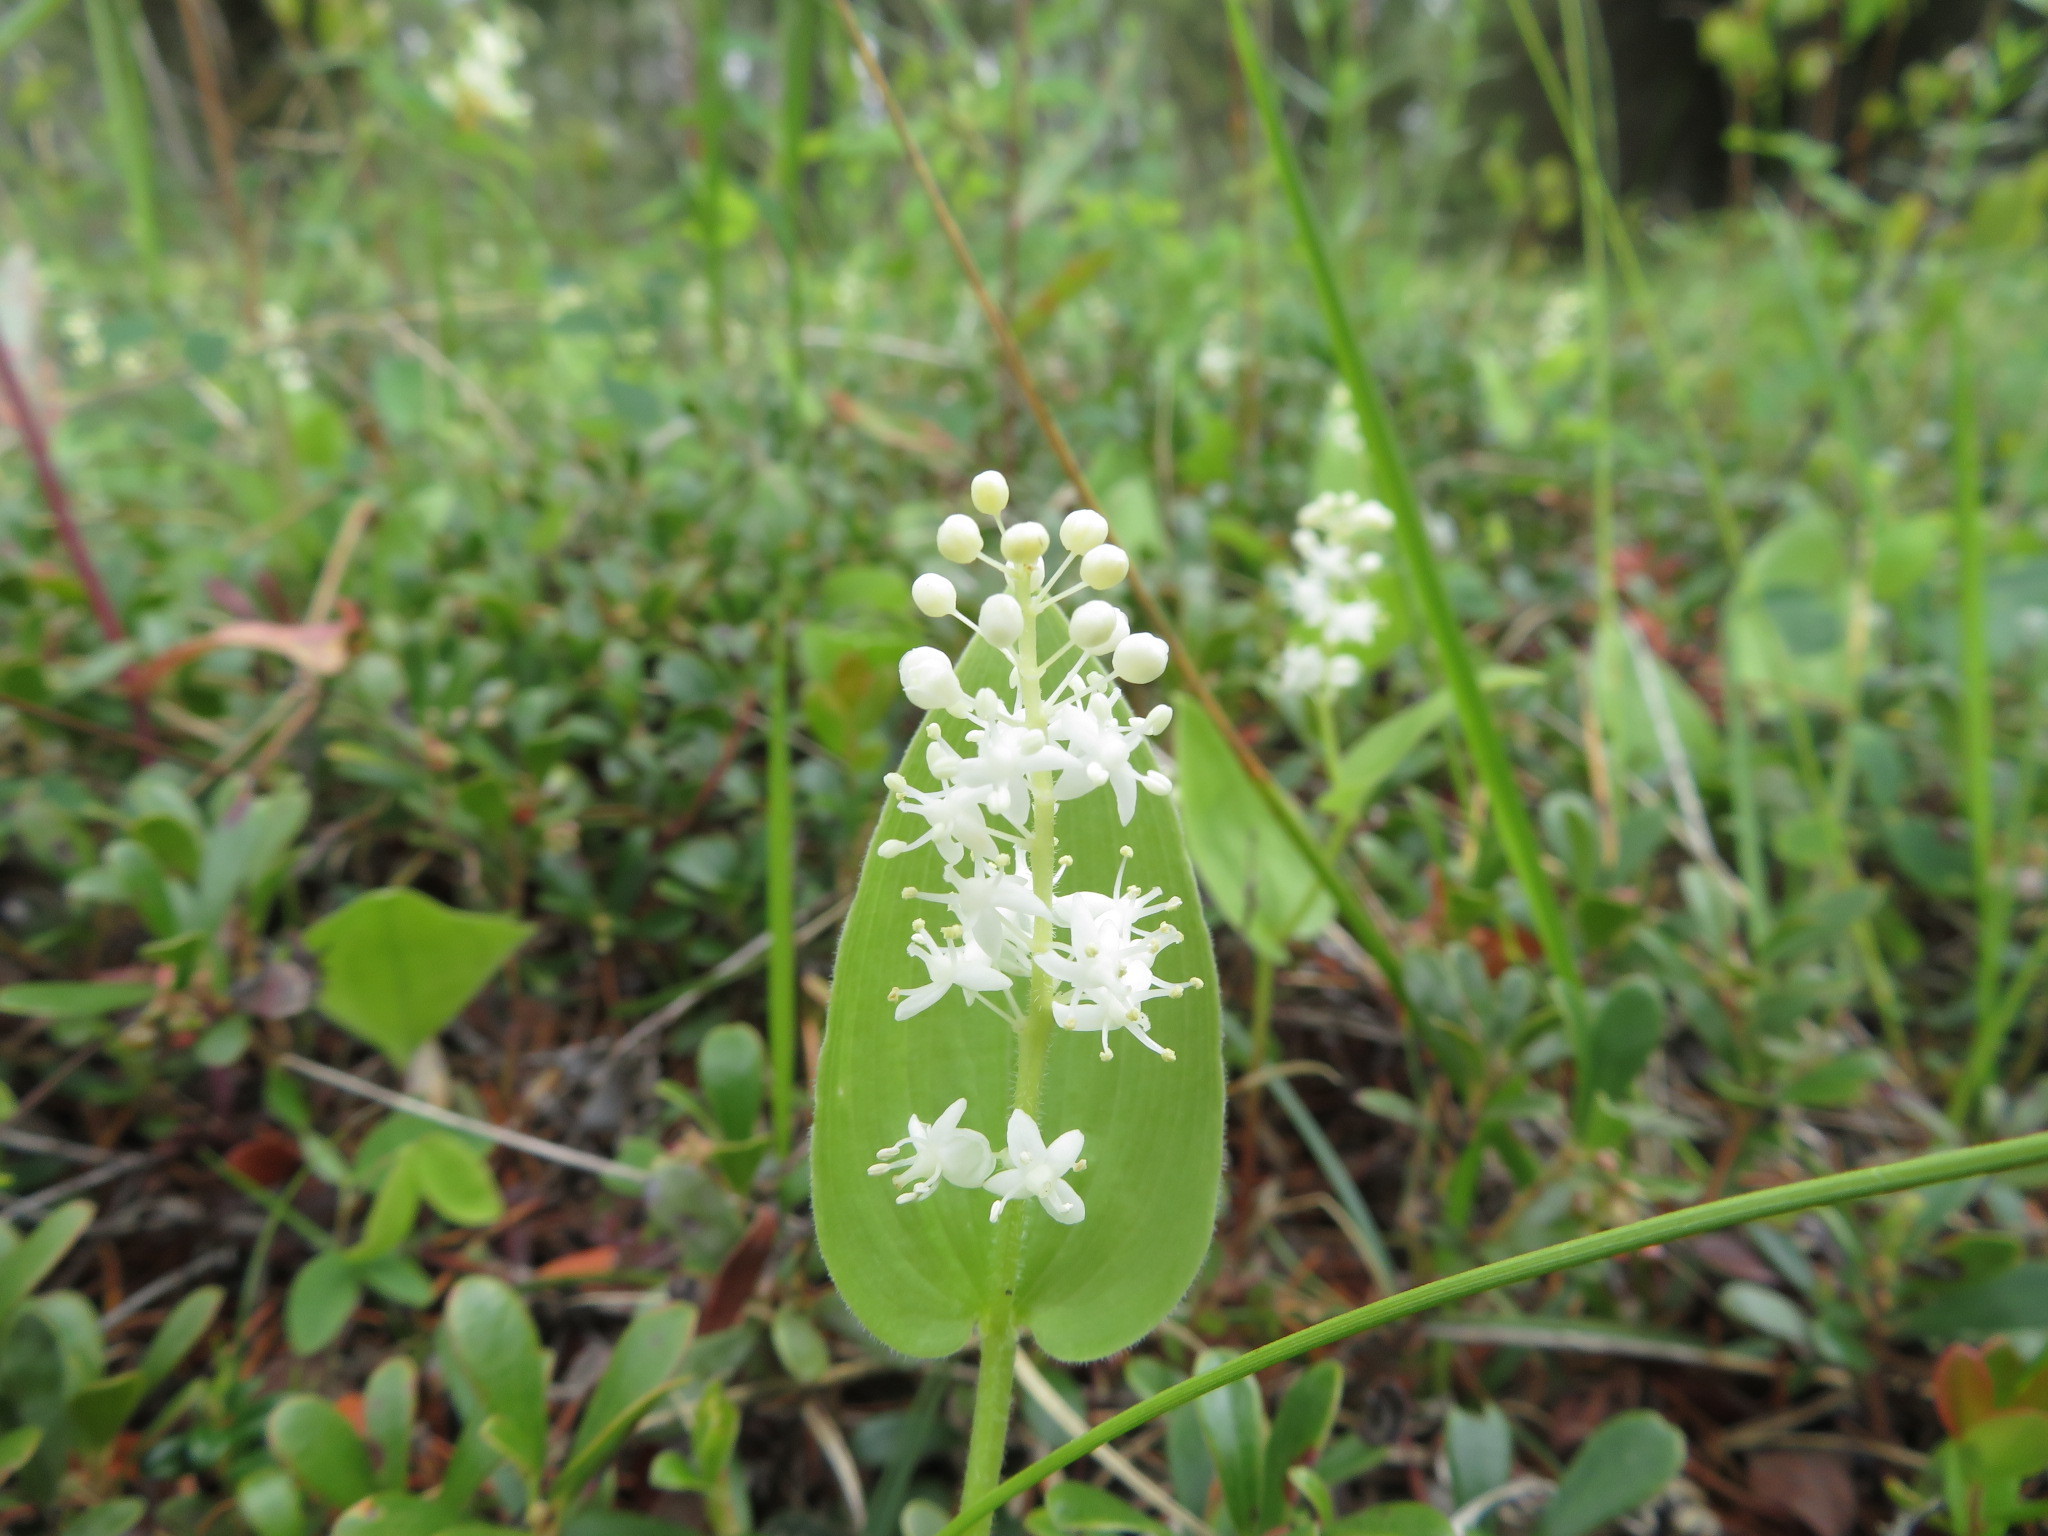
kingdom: Plantae
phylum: Tracheophyta
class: Liliopsida
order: Asparagales
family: Asparagaceae
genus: Maianthemum
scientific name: Maianthemum canadense
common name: False lily-of-the-valley
